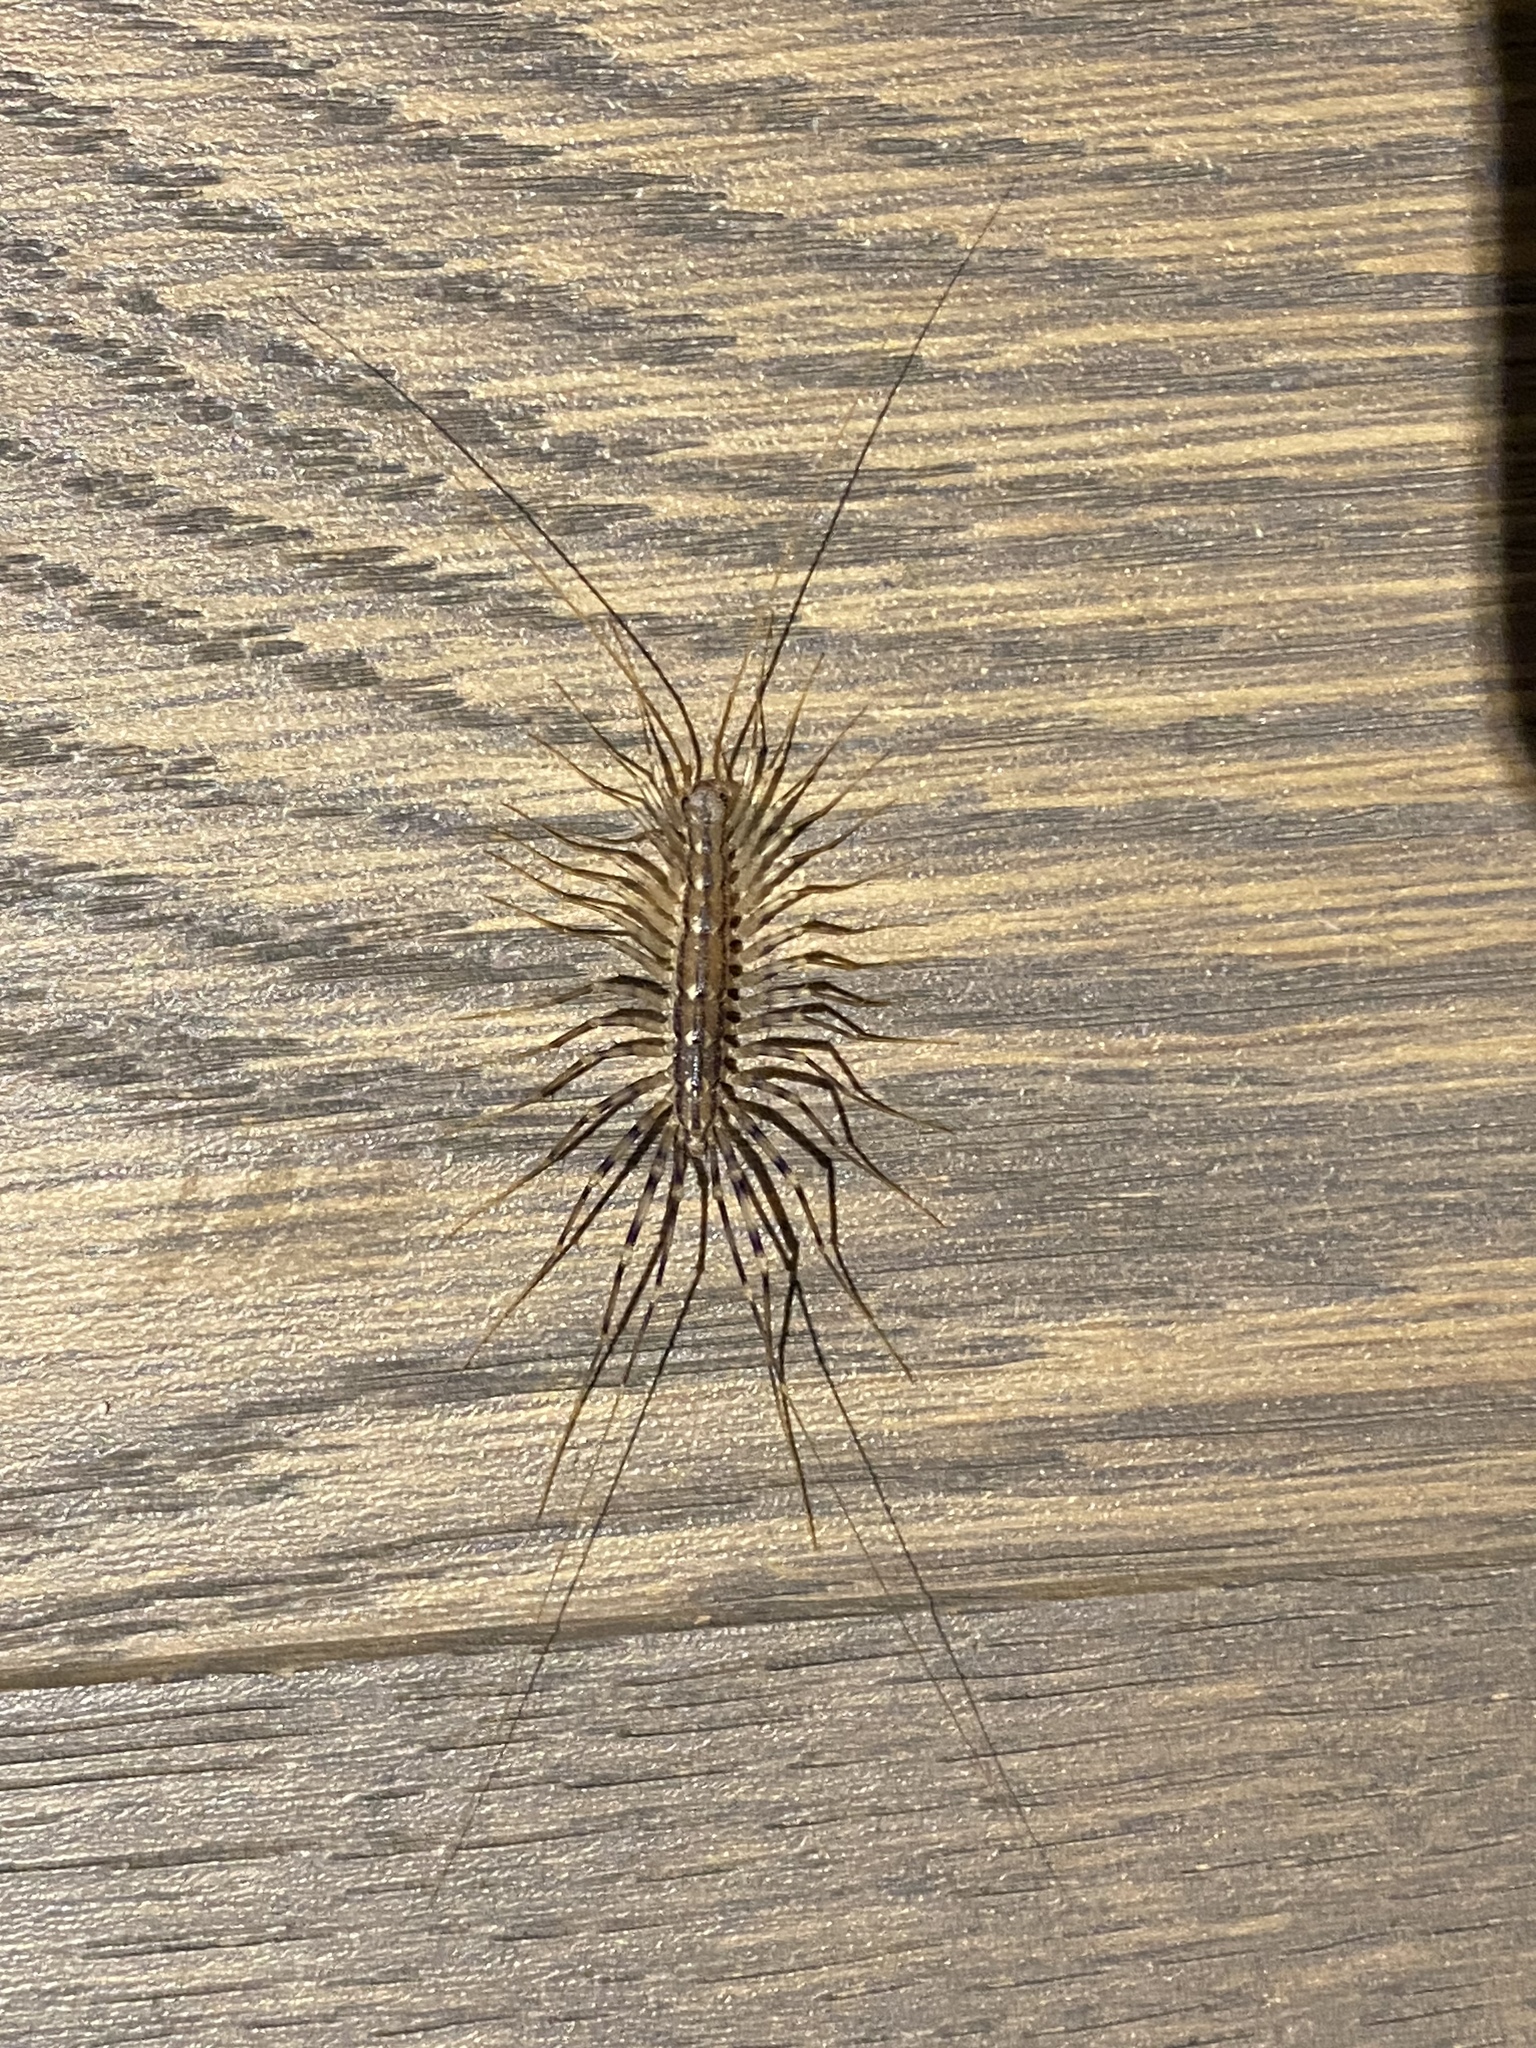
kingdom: Animalia
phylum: Arthropoda
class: Chilopoda
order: Scutigeromorpha
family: Scutigeridae
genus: Scutigera
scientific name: Scutigera coleoptrata
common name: House centipede
